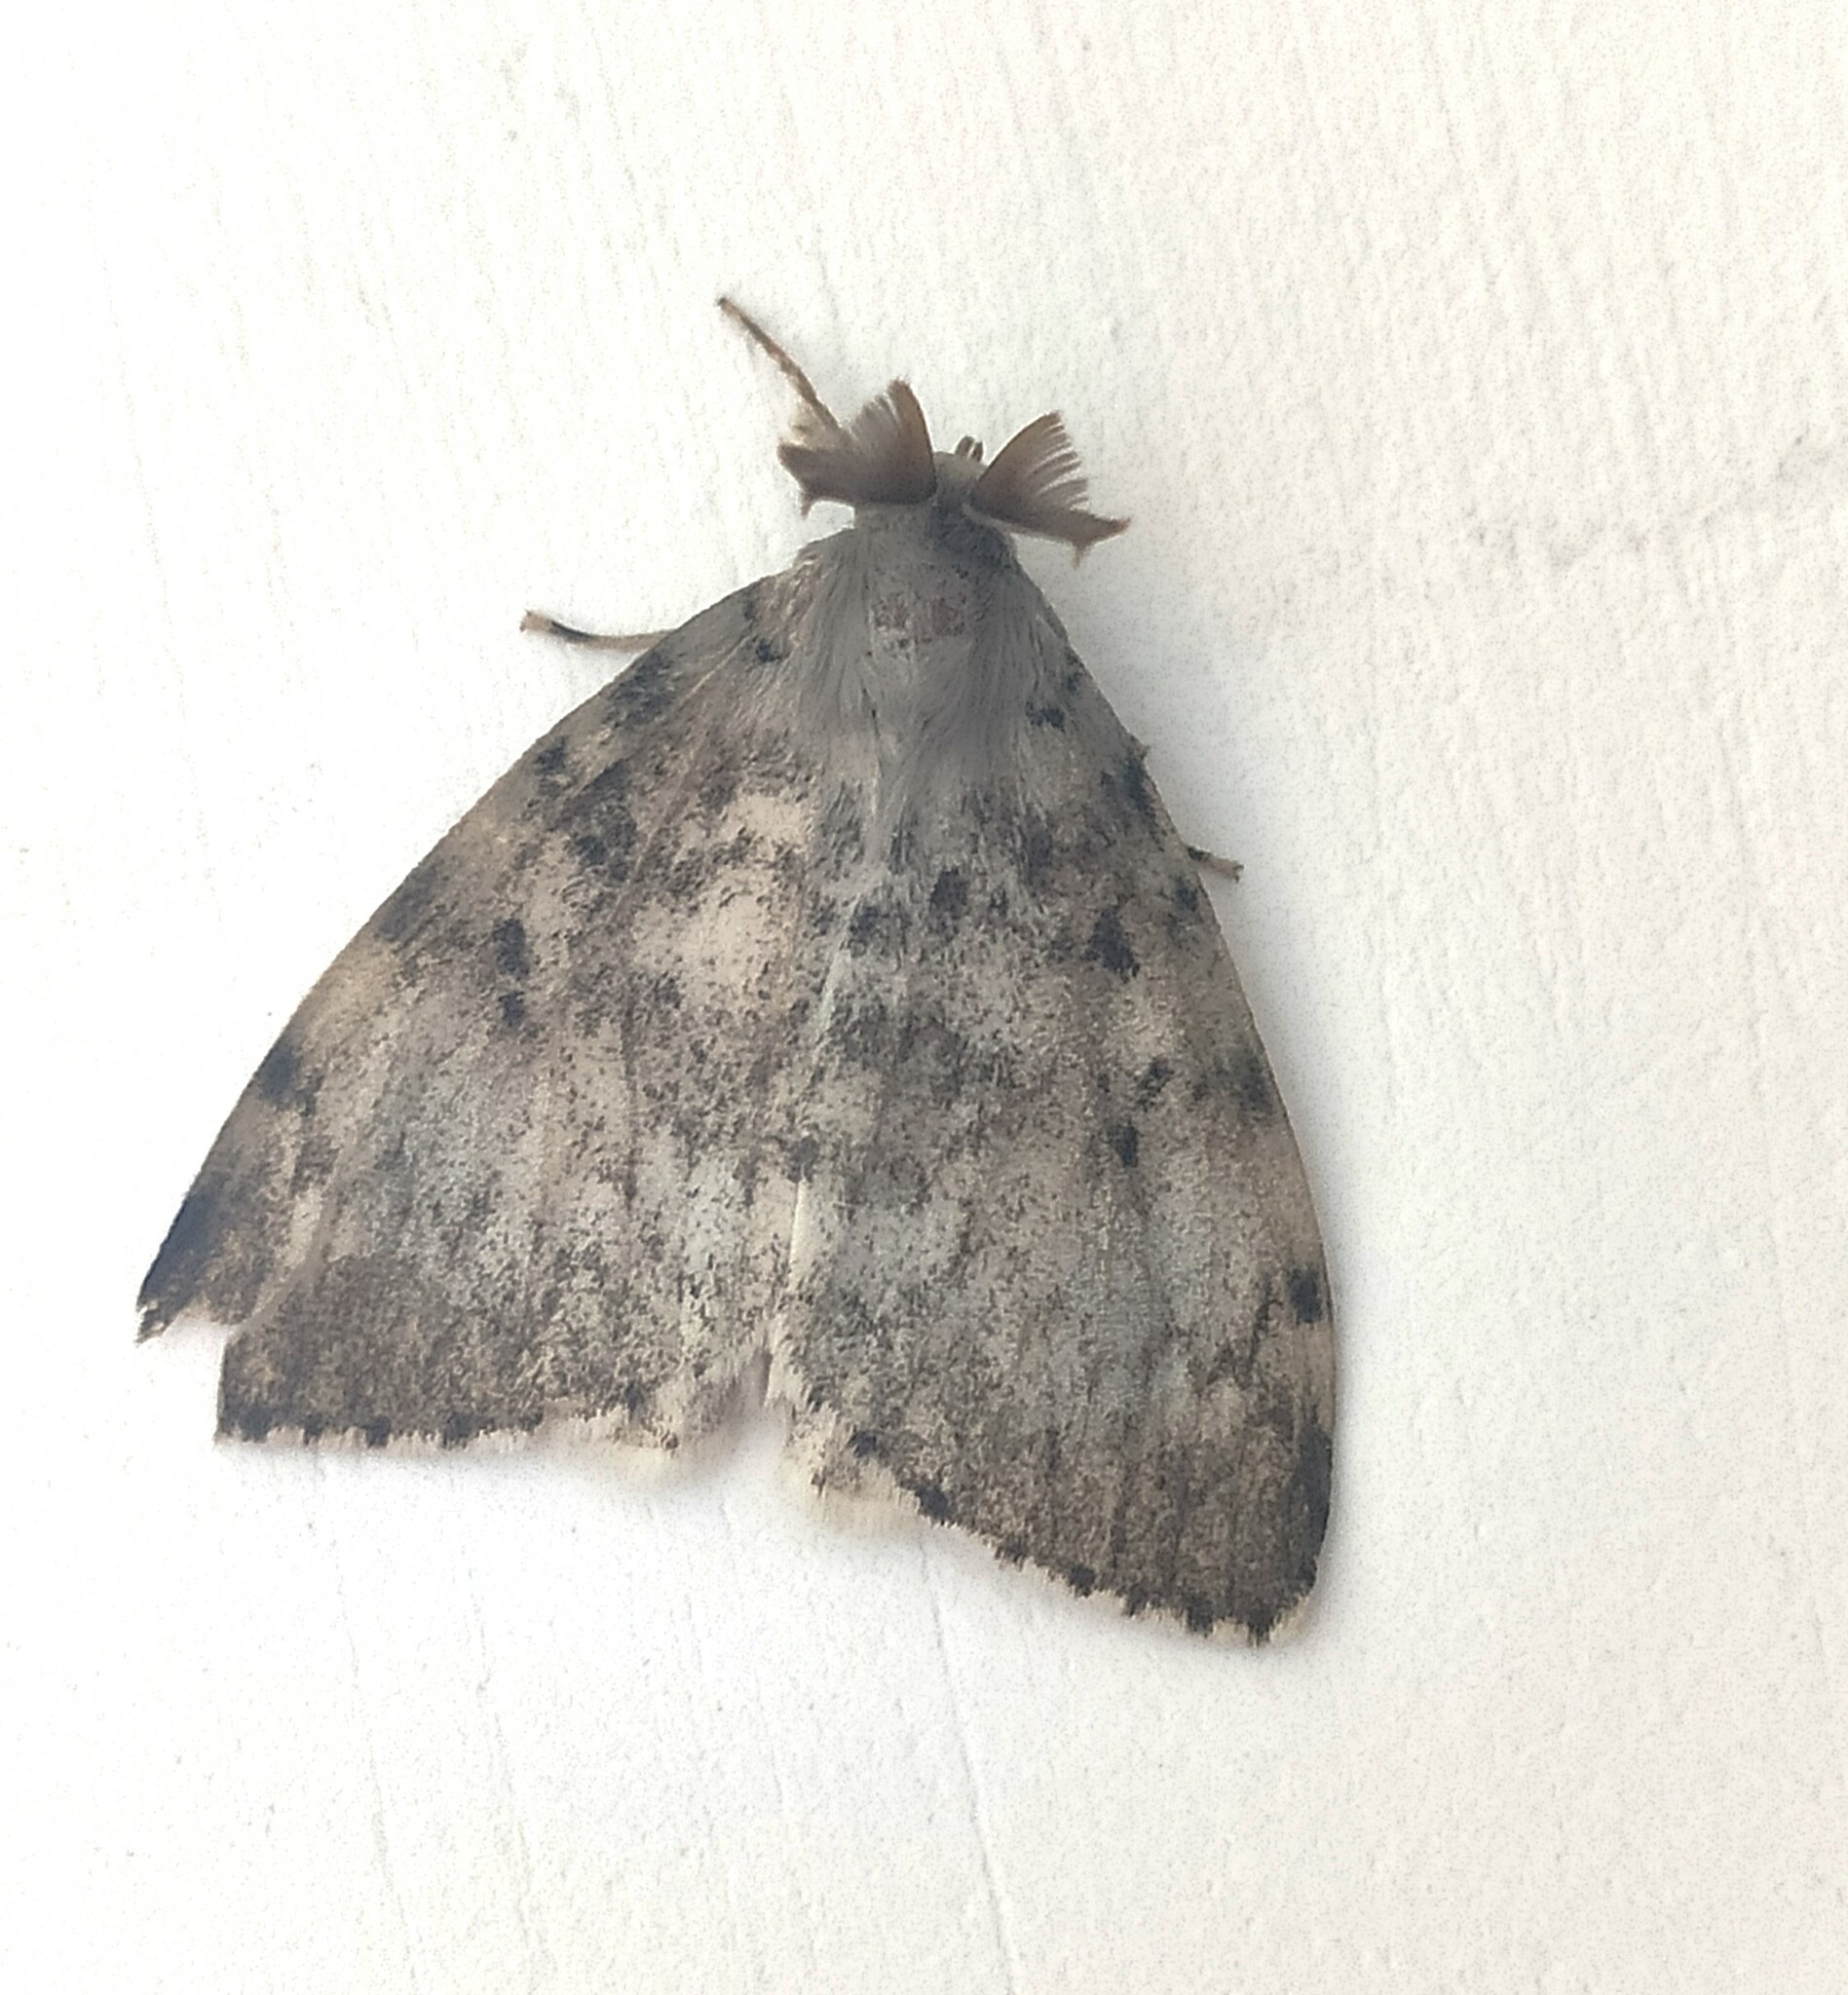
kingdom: Animalia
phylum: Arthropoda
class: Insecta
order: Lepidoptera
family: Erebidae
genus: Lymantria
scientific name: Lymantria dispar
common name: Gypsy moth
